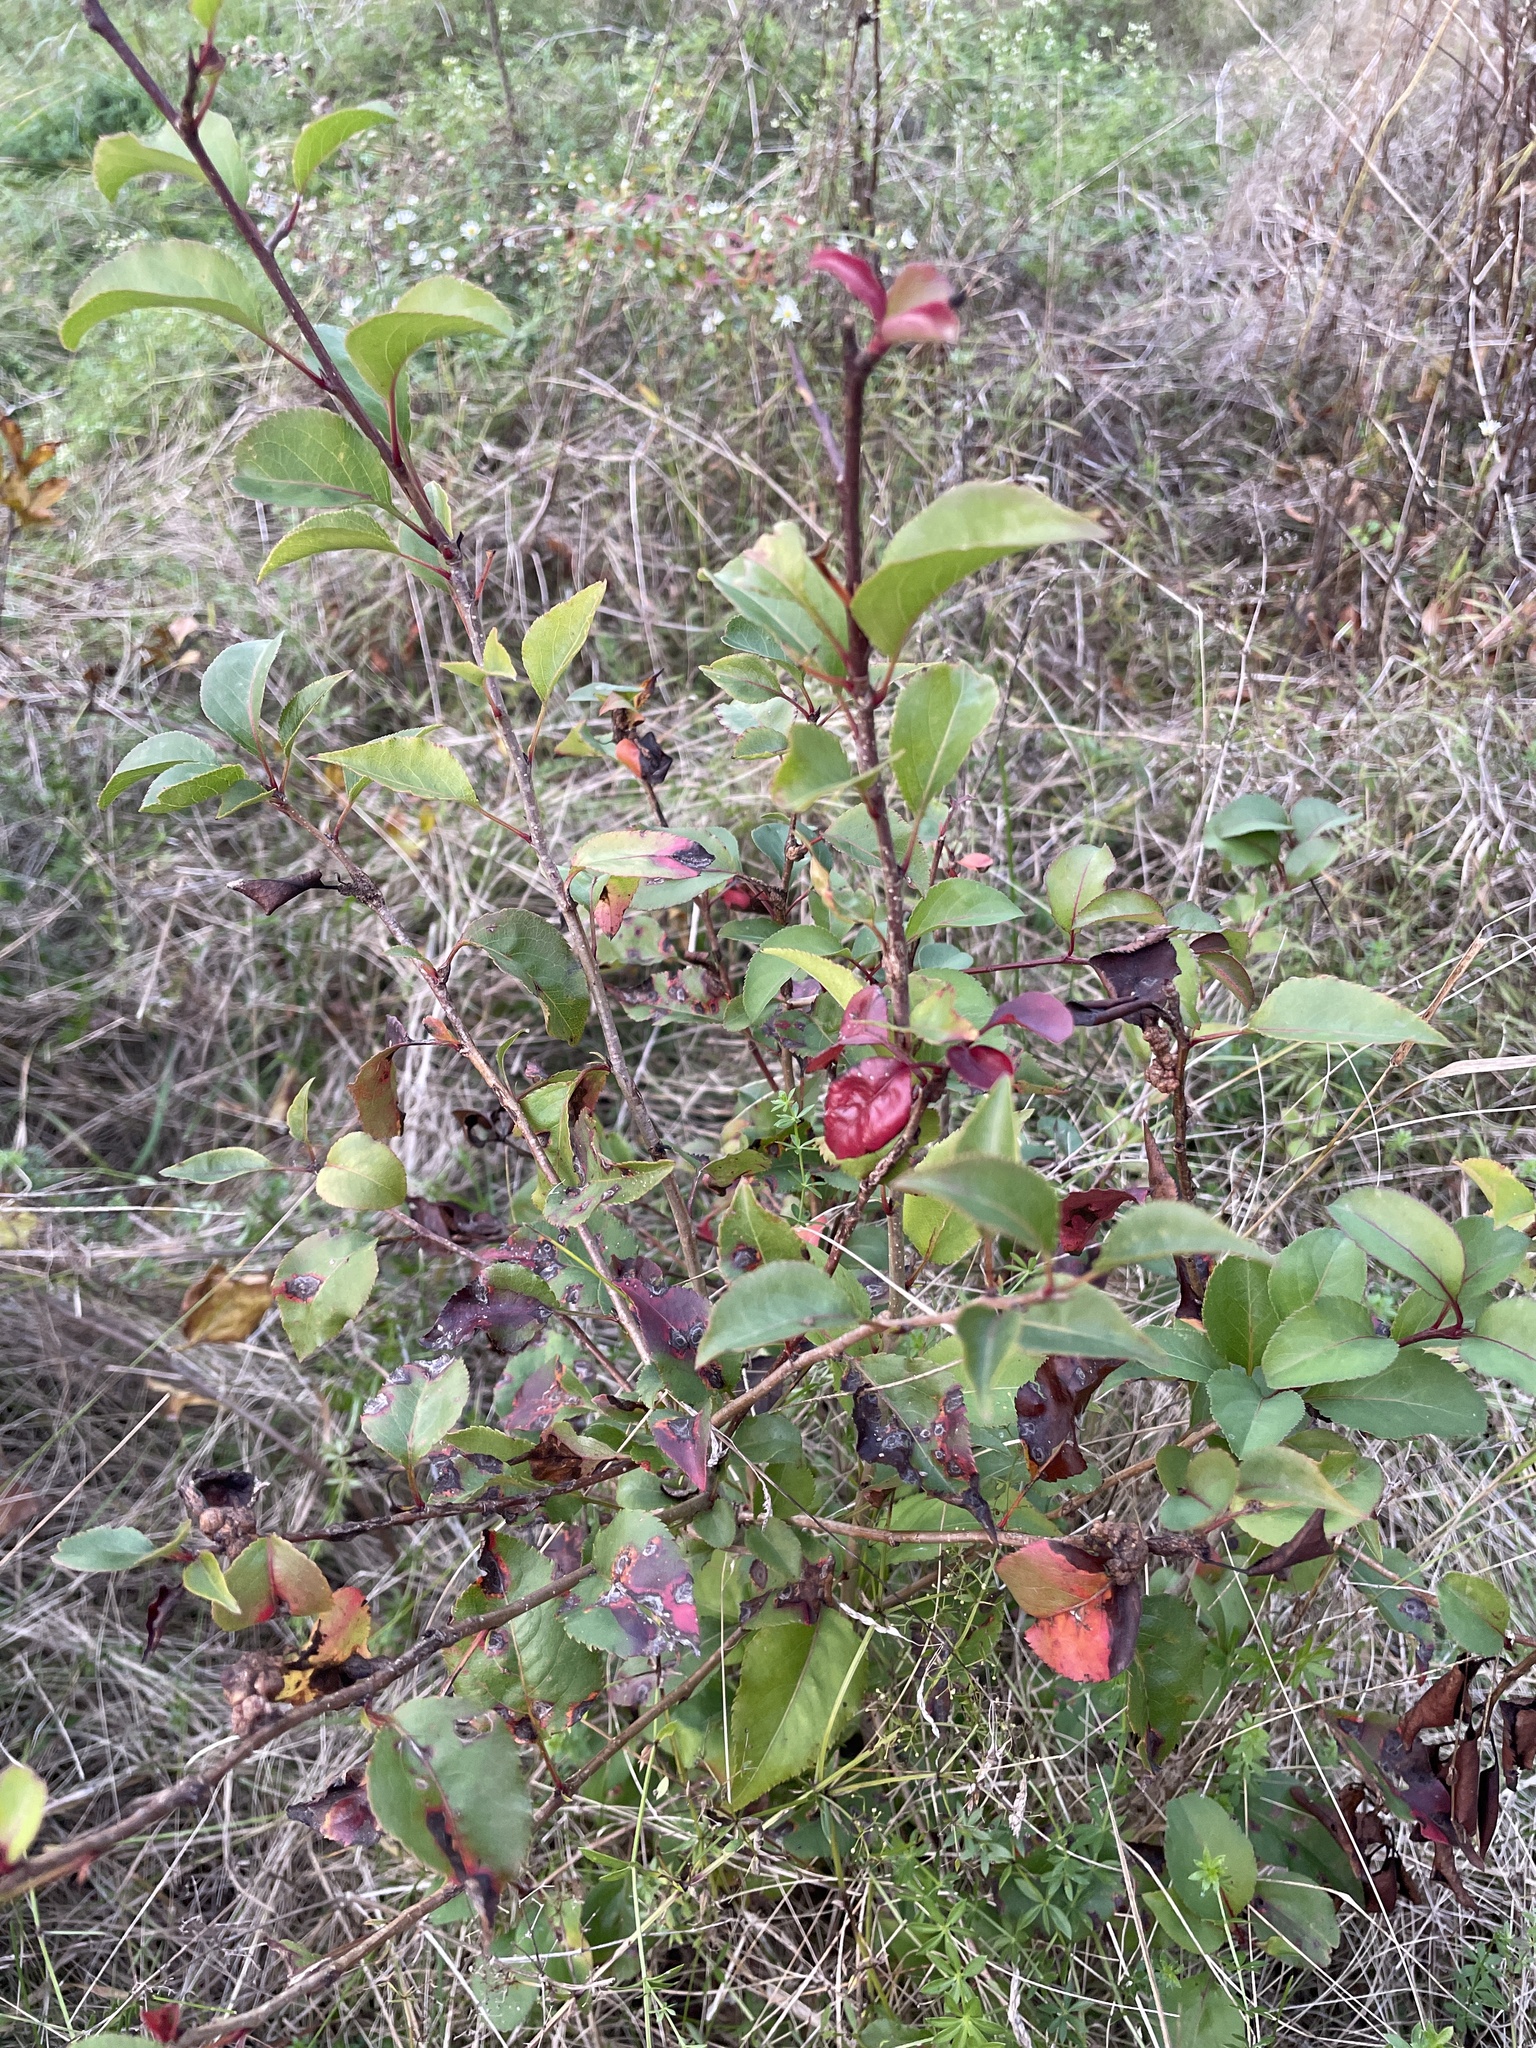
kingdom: Plantae
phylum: Tracheophyta
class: Magnoliopsida
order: Rosales
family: Rosaceae
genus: Pyrus
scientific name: Pyrus calleryana
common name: Callery pear
